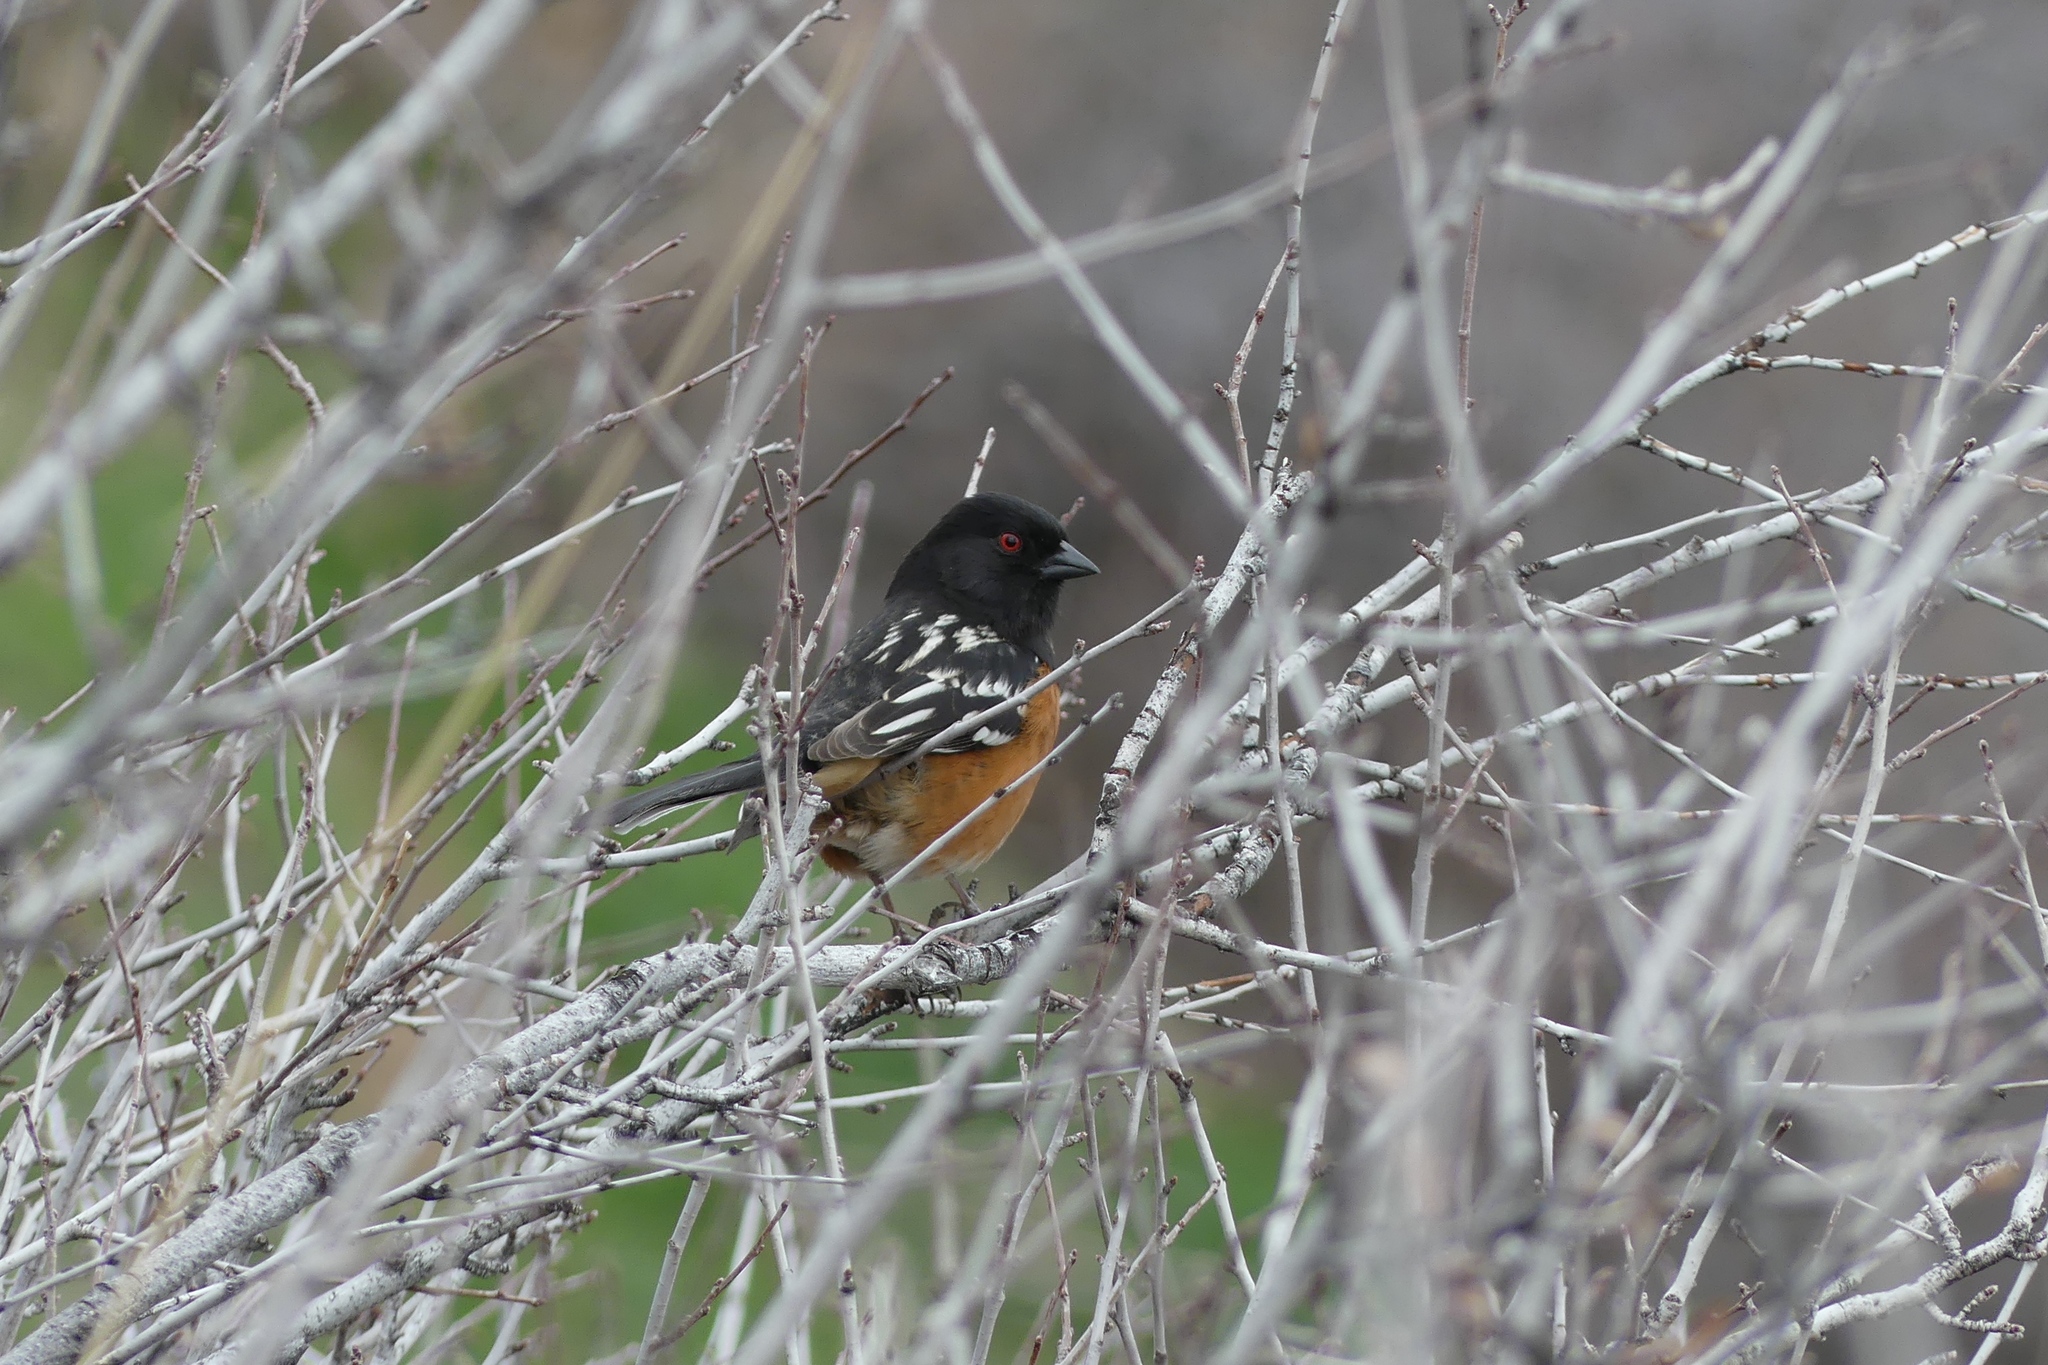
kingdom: Animalia
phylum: Chordata
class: Aves
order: Passeriformes
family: Passerellidae
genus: Pipilo
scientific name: Pipilo maculatus
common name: Spotted towhee
